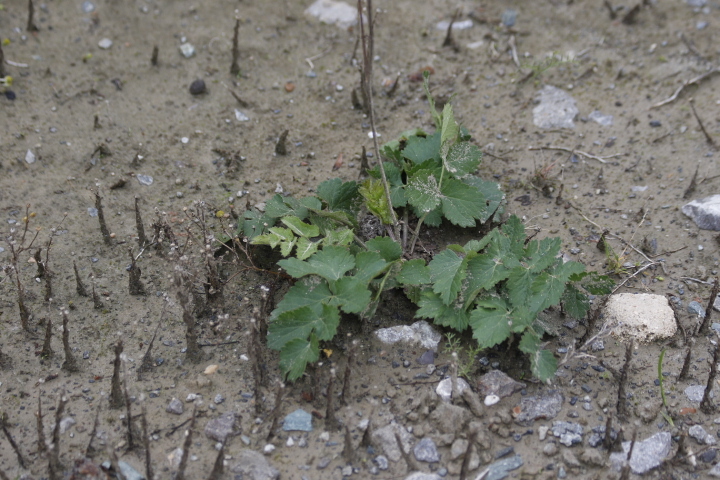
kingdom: Plantae
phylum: Tracheophyta
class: Magnoliopsida
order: Apiales
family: Apiaceae
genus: Pimpinella
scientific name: Pimpinella saxifraga
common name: Burnet-saxifrage
